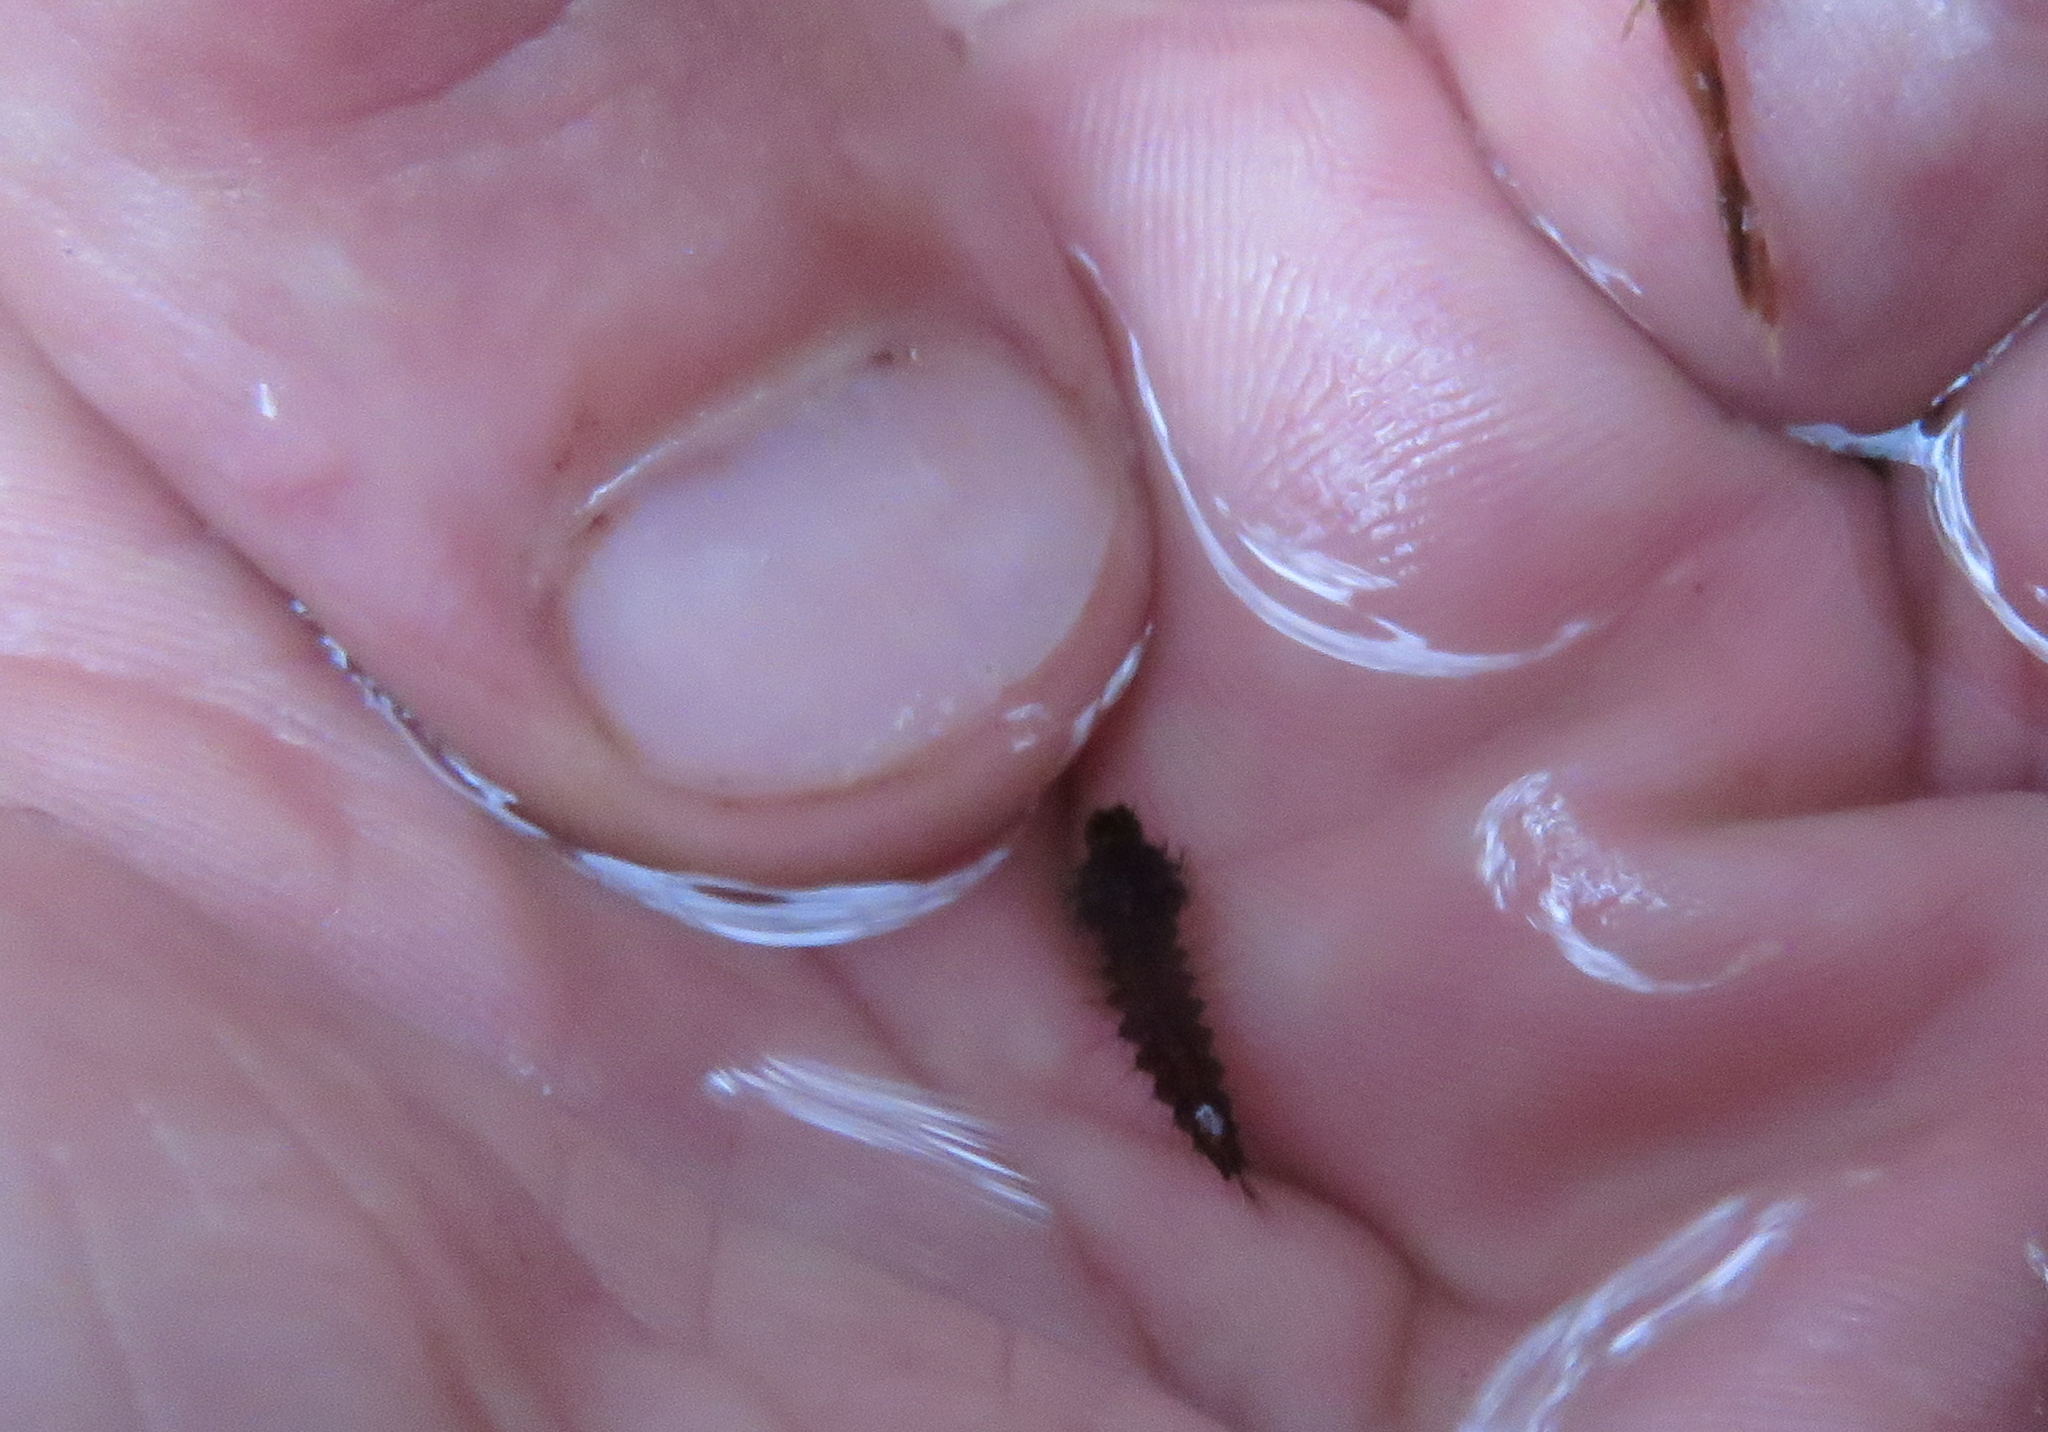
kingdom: Animalia
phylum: Arthropoda
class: Insecta
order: Diptera
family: Culicidae
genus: Toxorhynchites
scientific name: Toxorhynchites speciosus
